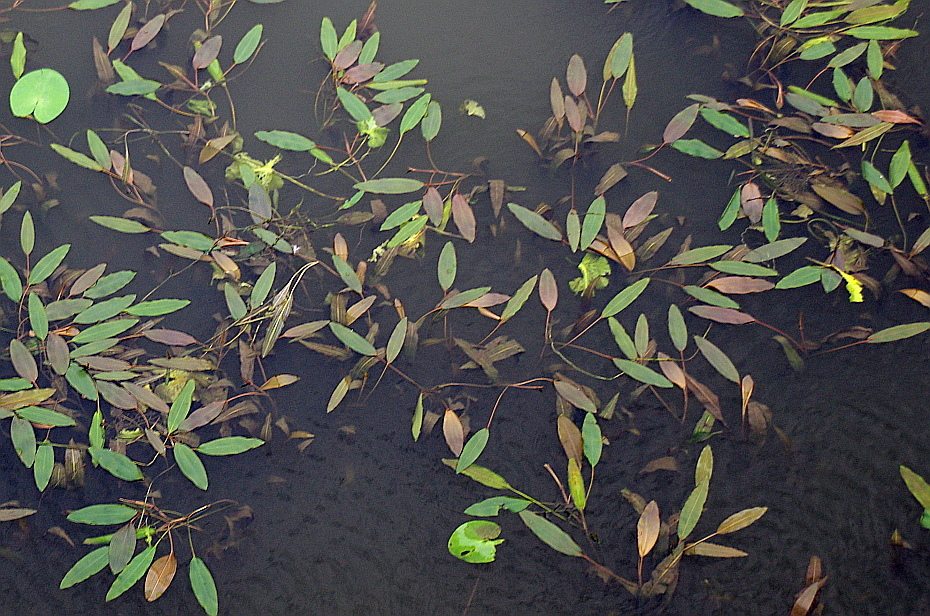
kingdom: Plantae
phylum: Tracheophyta
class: Liliopsida
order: Alismatales
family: Potamogetonaceae
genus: Potamogeton
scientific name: Potamogeton nodosus
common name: Loddon pondweed
